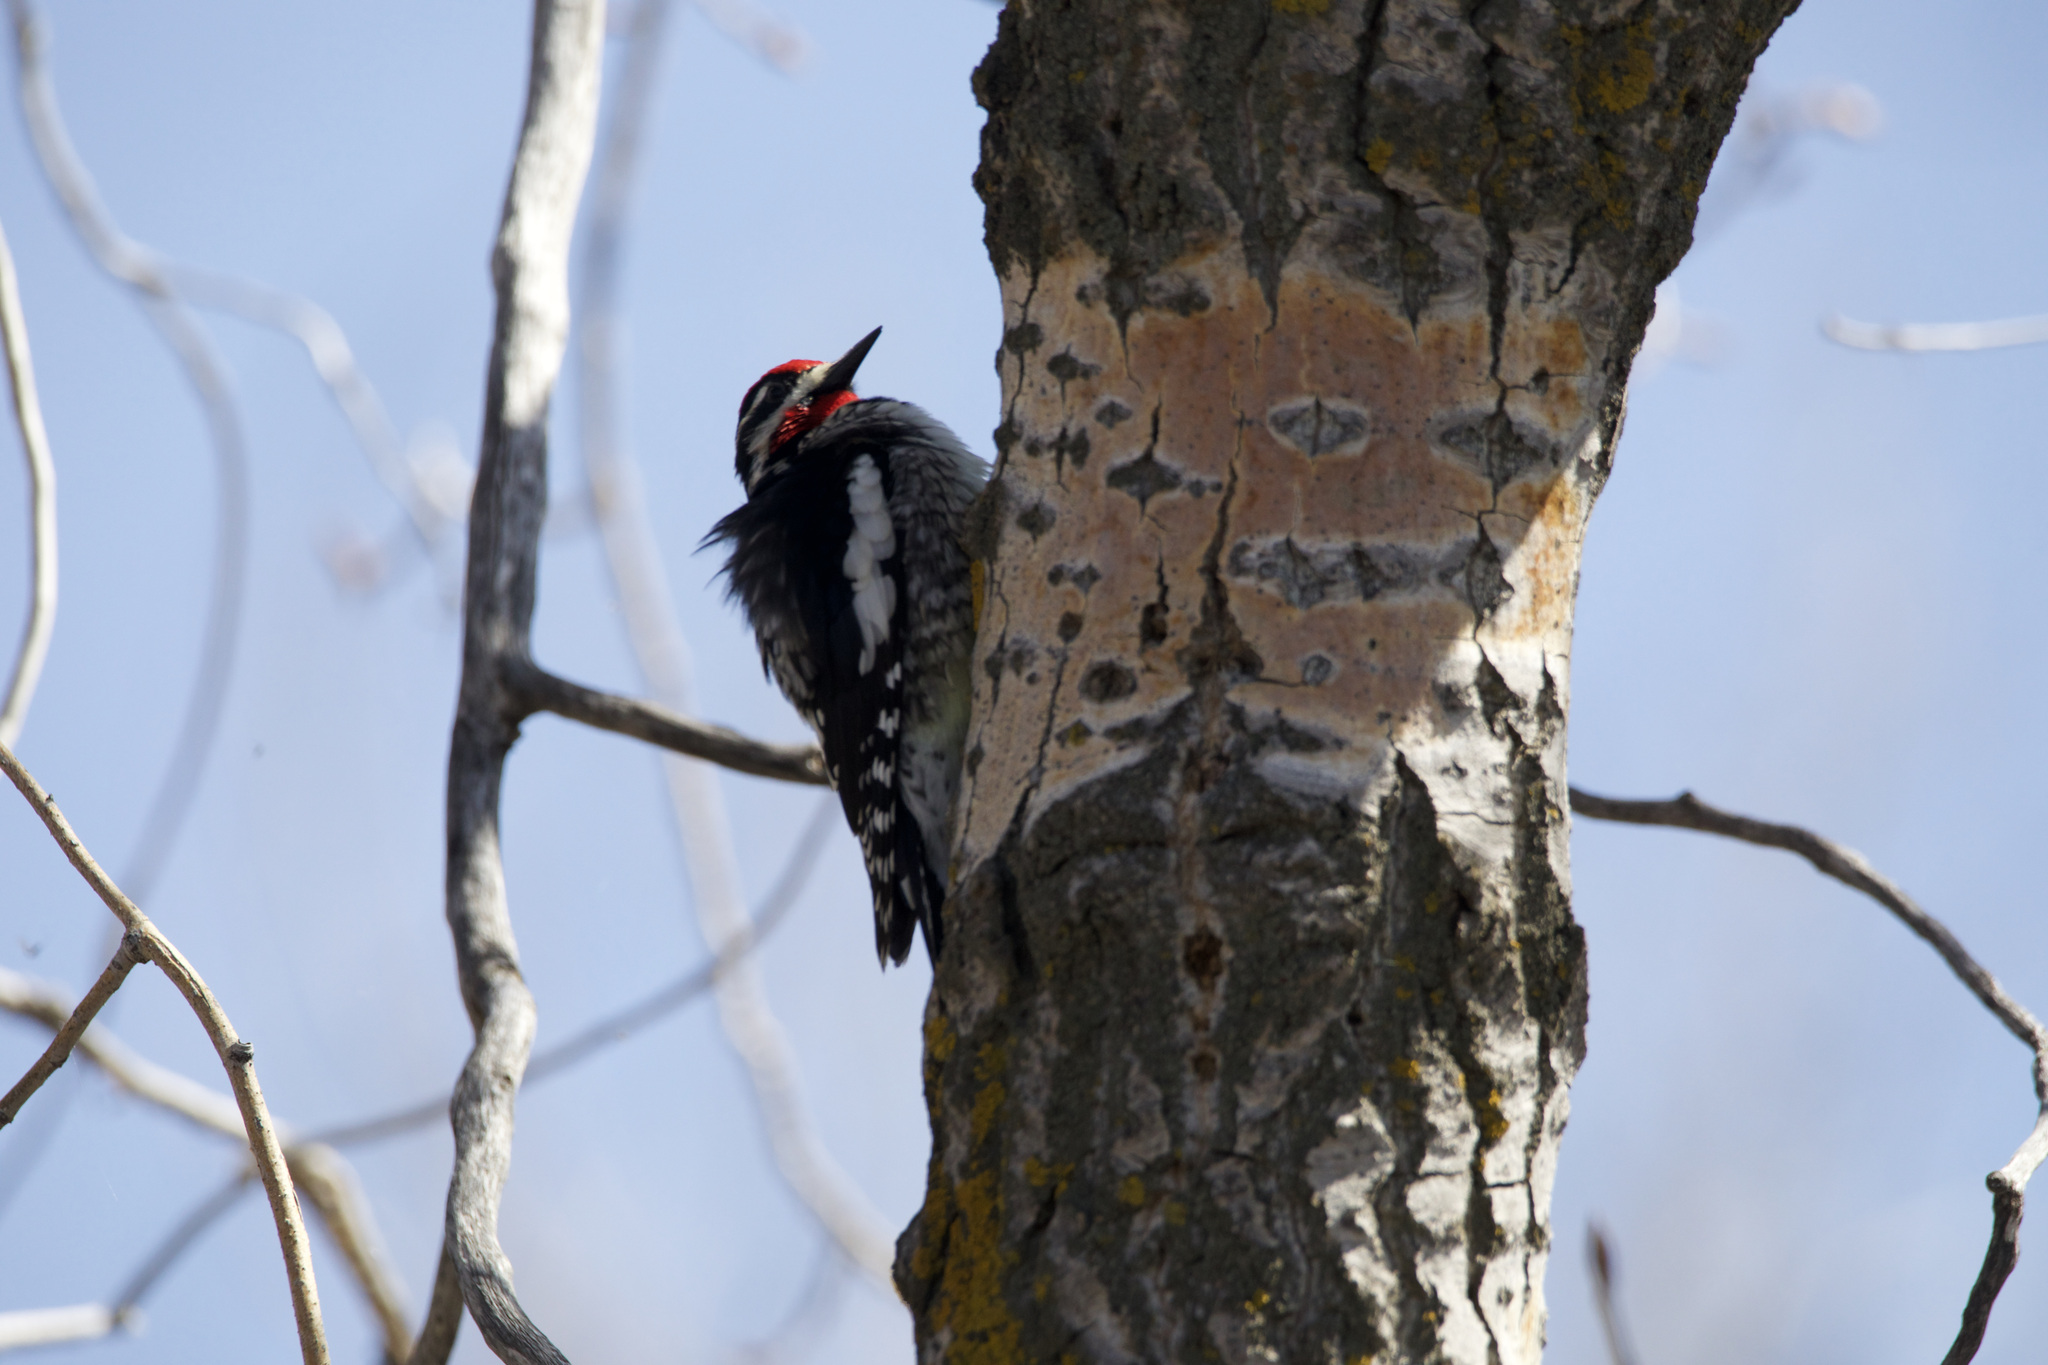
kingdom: Animalia
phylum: Chordata
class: Aves
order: Piciformes
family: Picidae
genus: Sphyrapicus
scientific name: Sphyrapicus nuchalis
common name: Red-naped sapsucker
